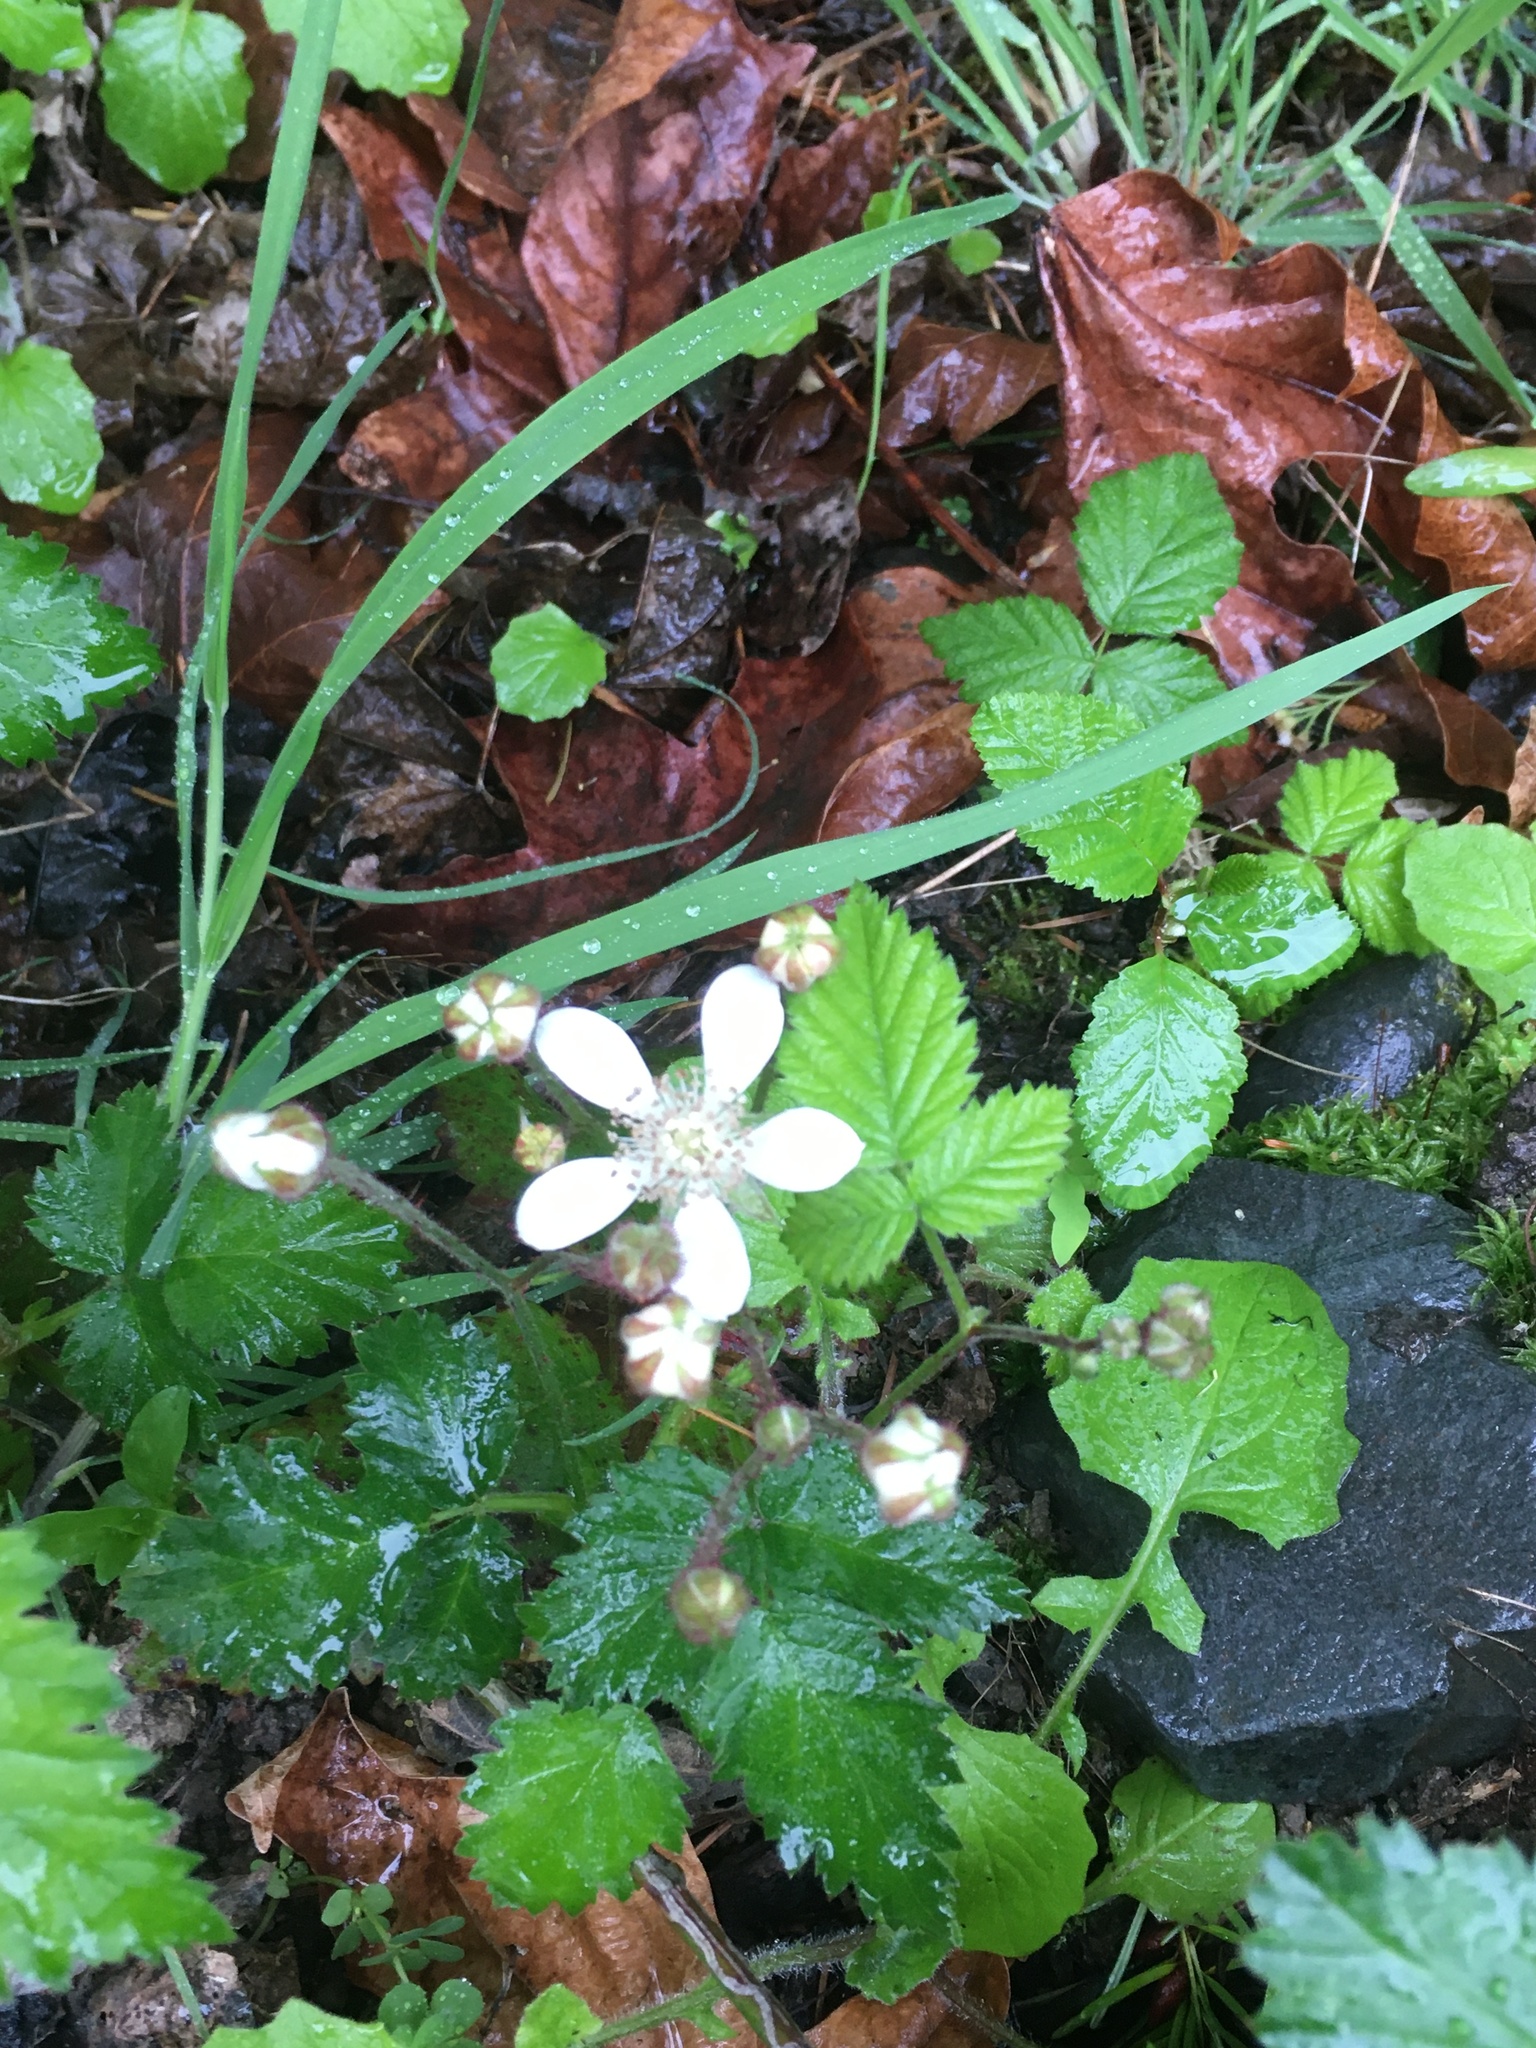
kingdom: Plantae
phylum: Tracheophyta
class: Magnoliopsida
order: Rosales
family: Rosaceae
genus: Rubus
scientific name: Rubus ursinus
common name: Pacific blackberry
